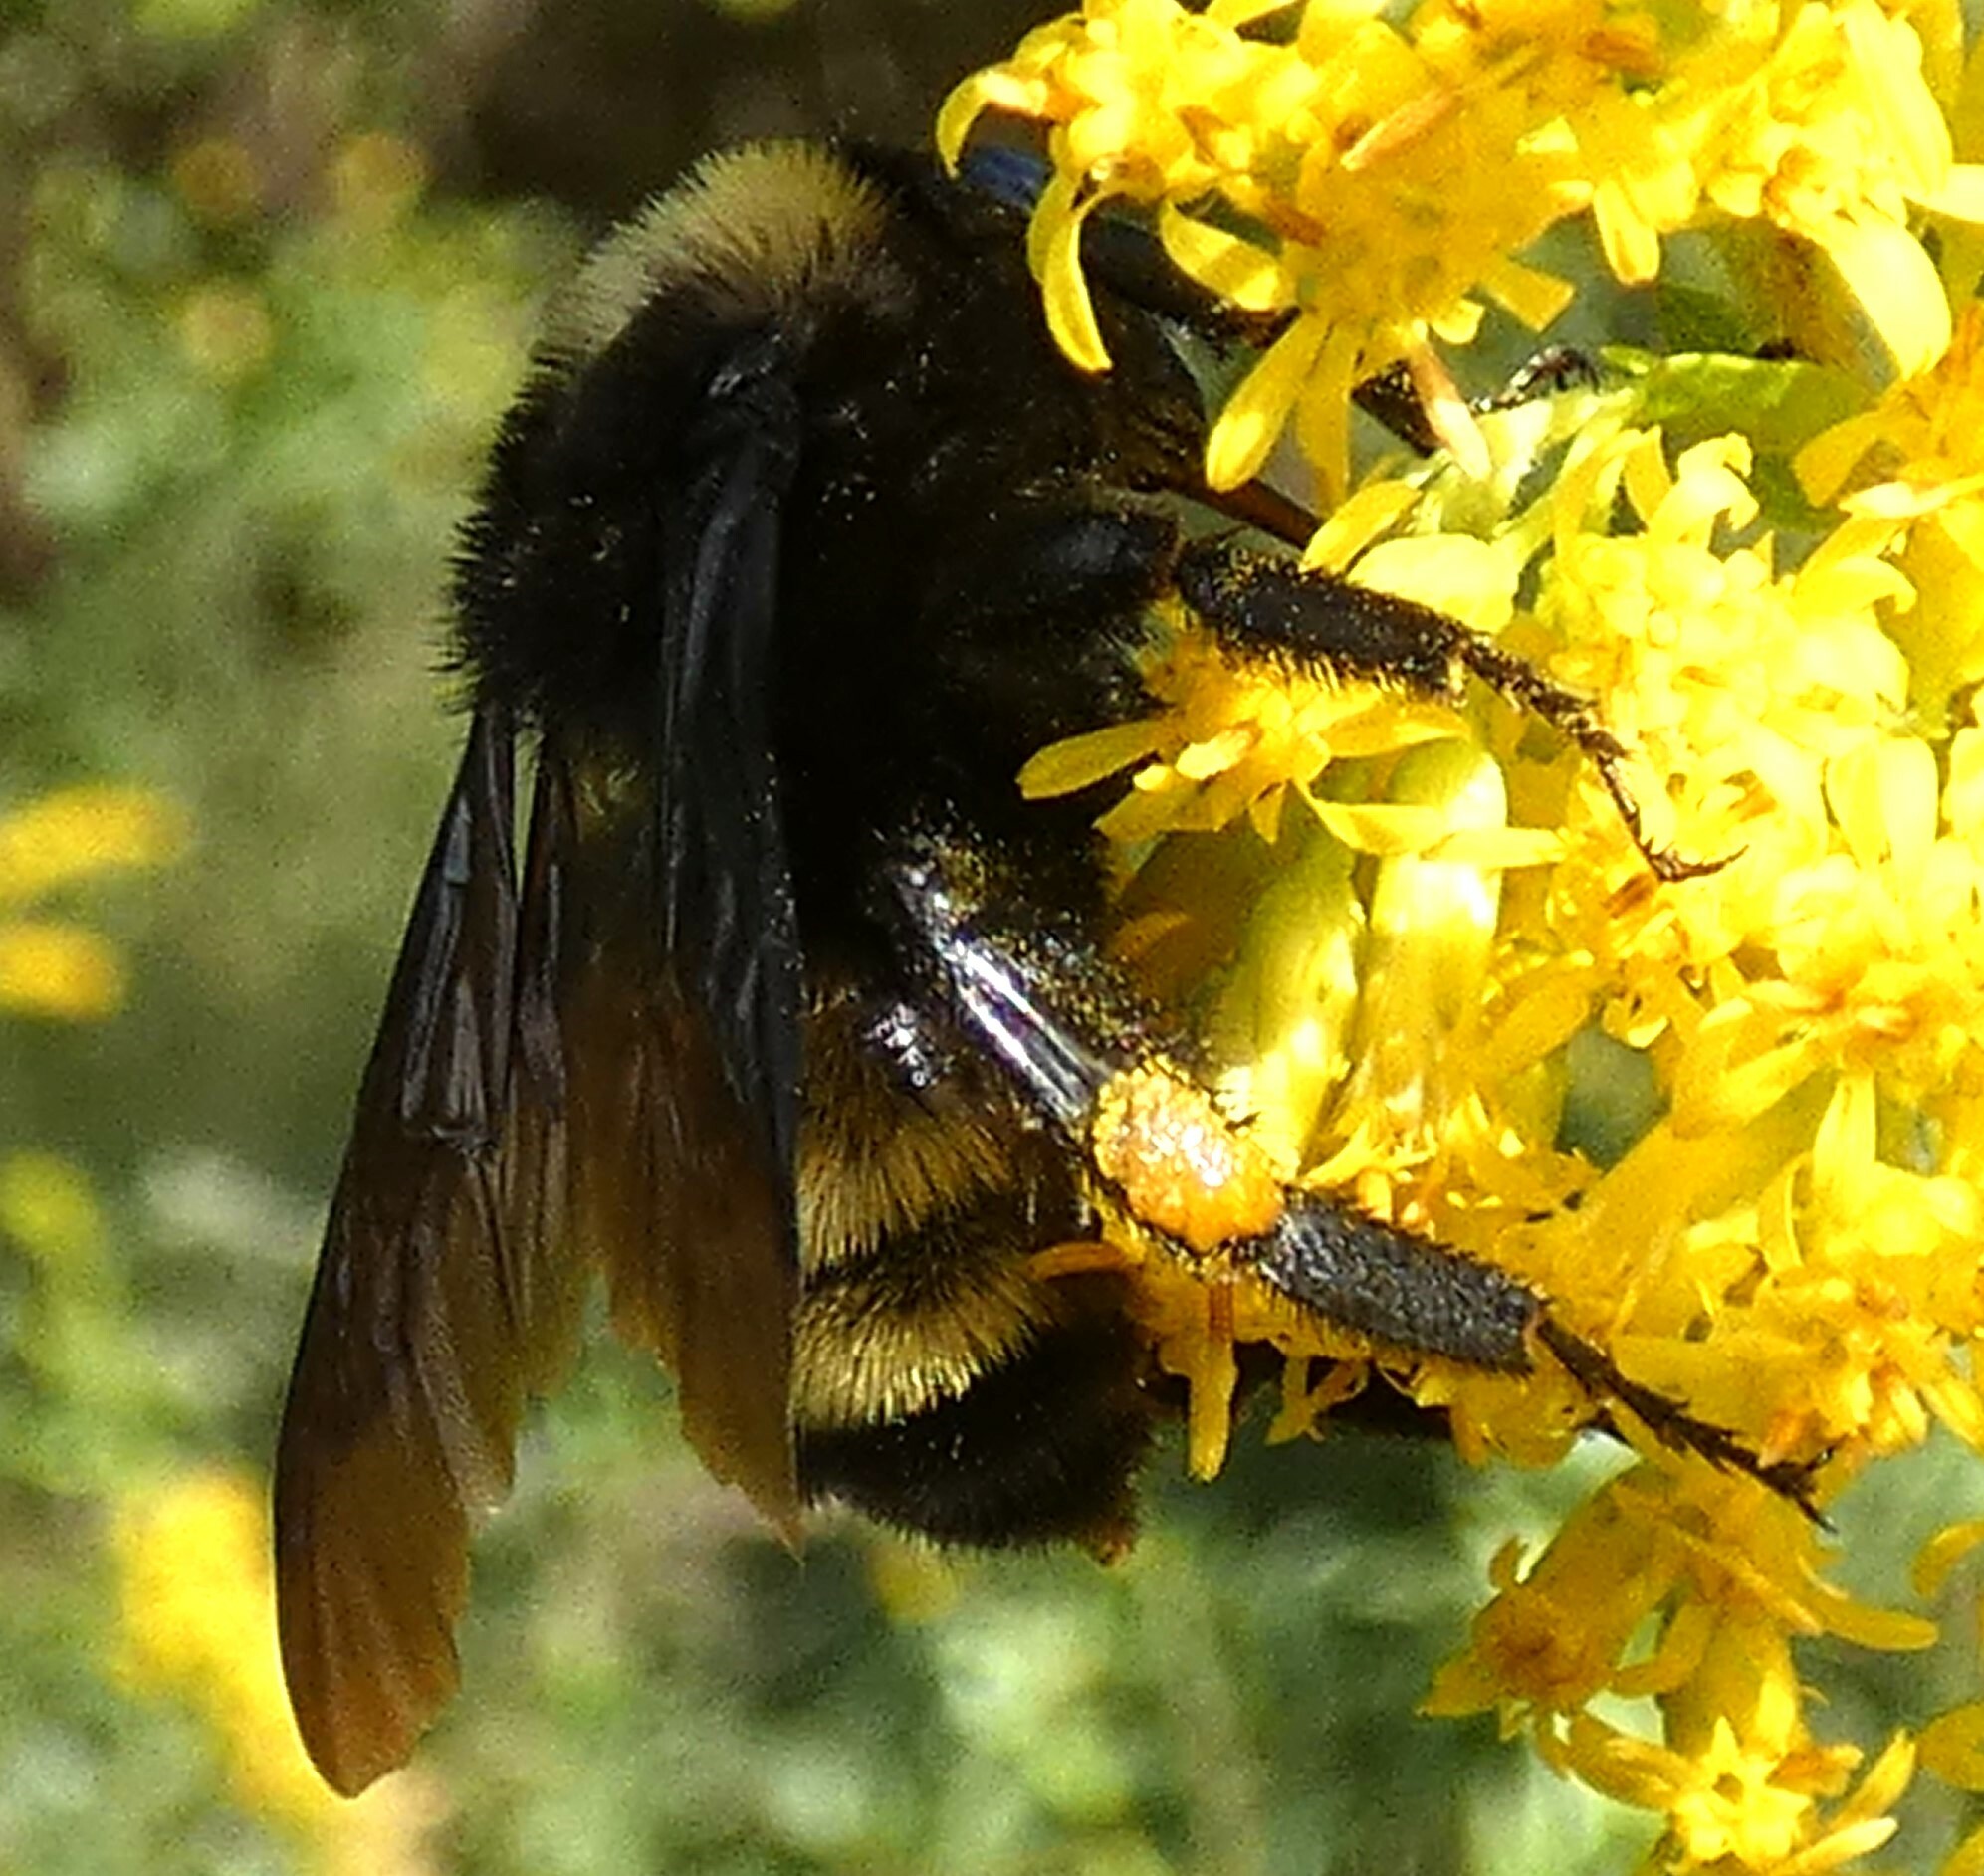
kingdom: Animalia
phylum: Arthropoda
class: Insecta
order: Hymenoptera
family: Apidae
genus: Bombus
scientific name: Bombus pensylvanicus
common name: Bumble bee
